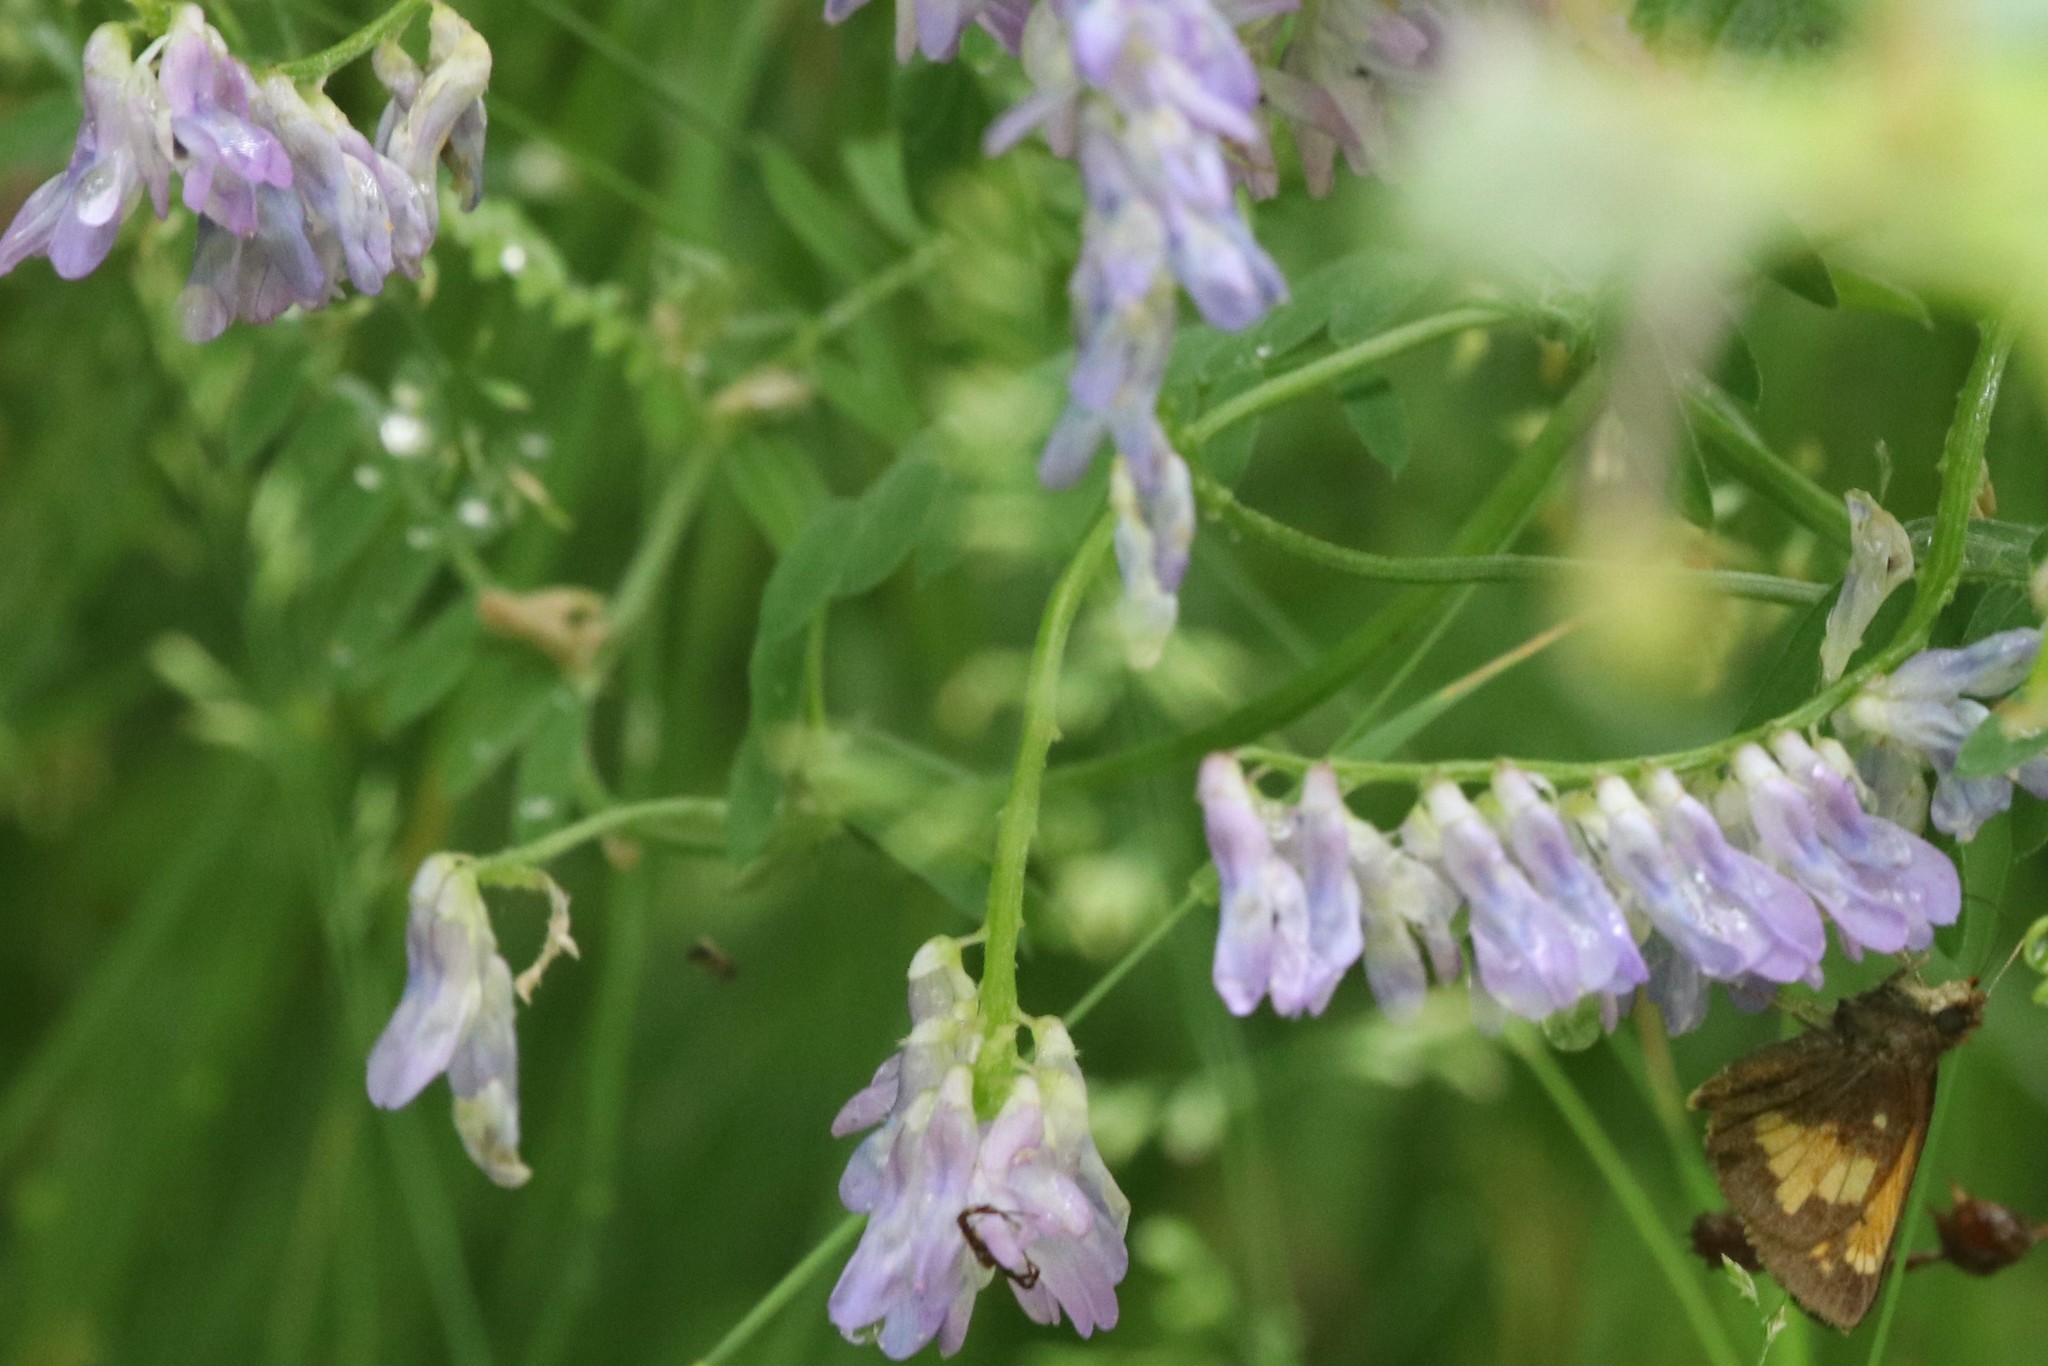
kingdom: Plantae
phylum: Tracheophyta
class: Magnoliopsida
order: Fabales
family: Fabaceae
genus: Vicia
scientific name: Vicia cracca
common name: Bird vetch
